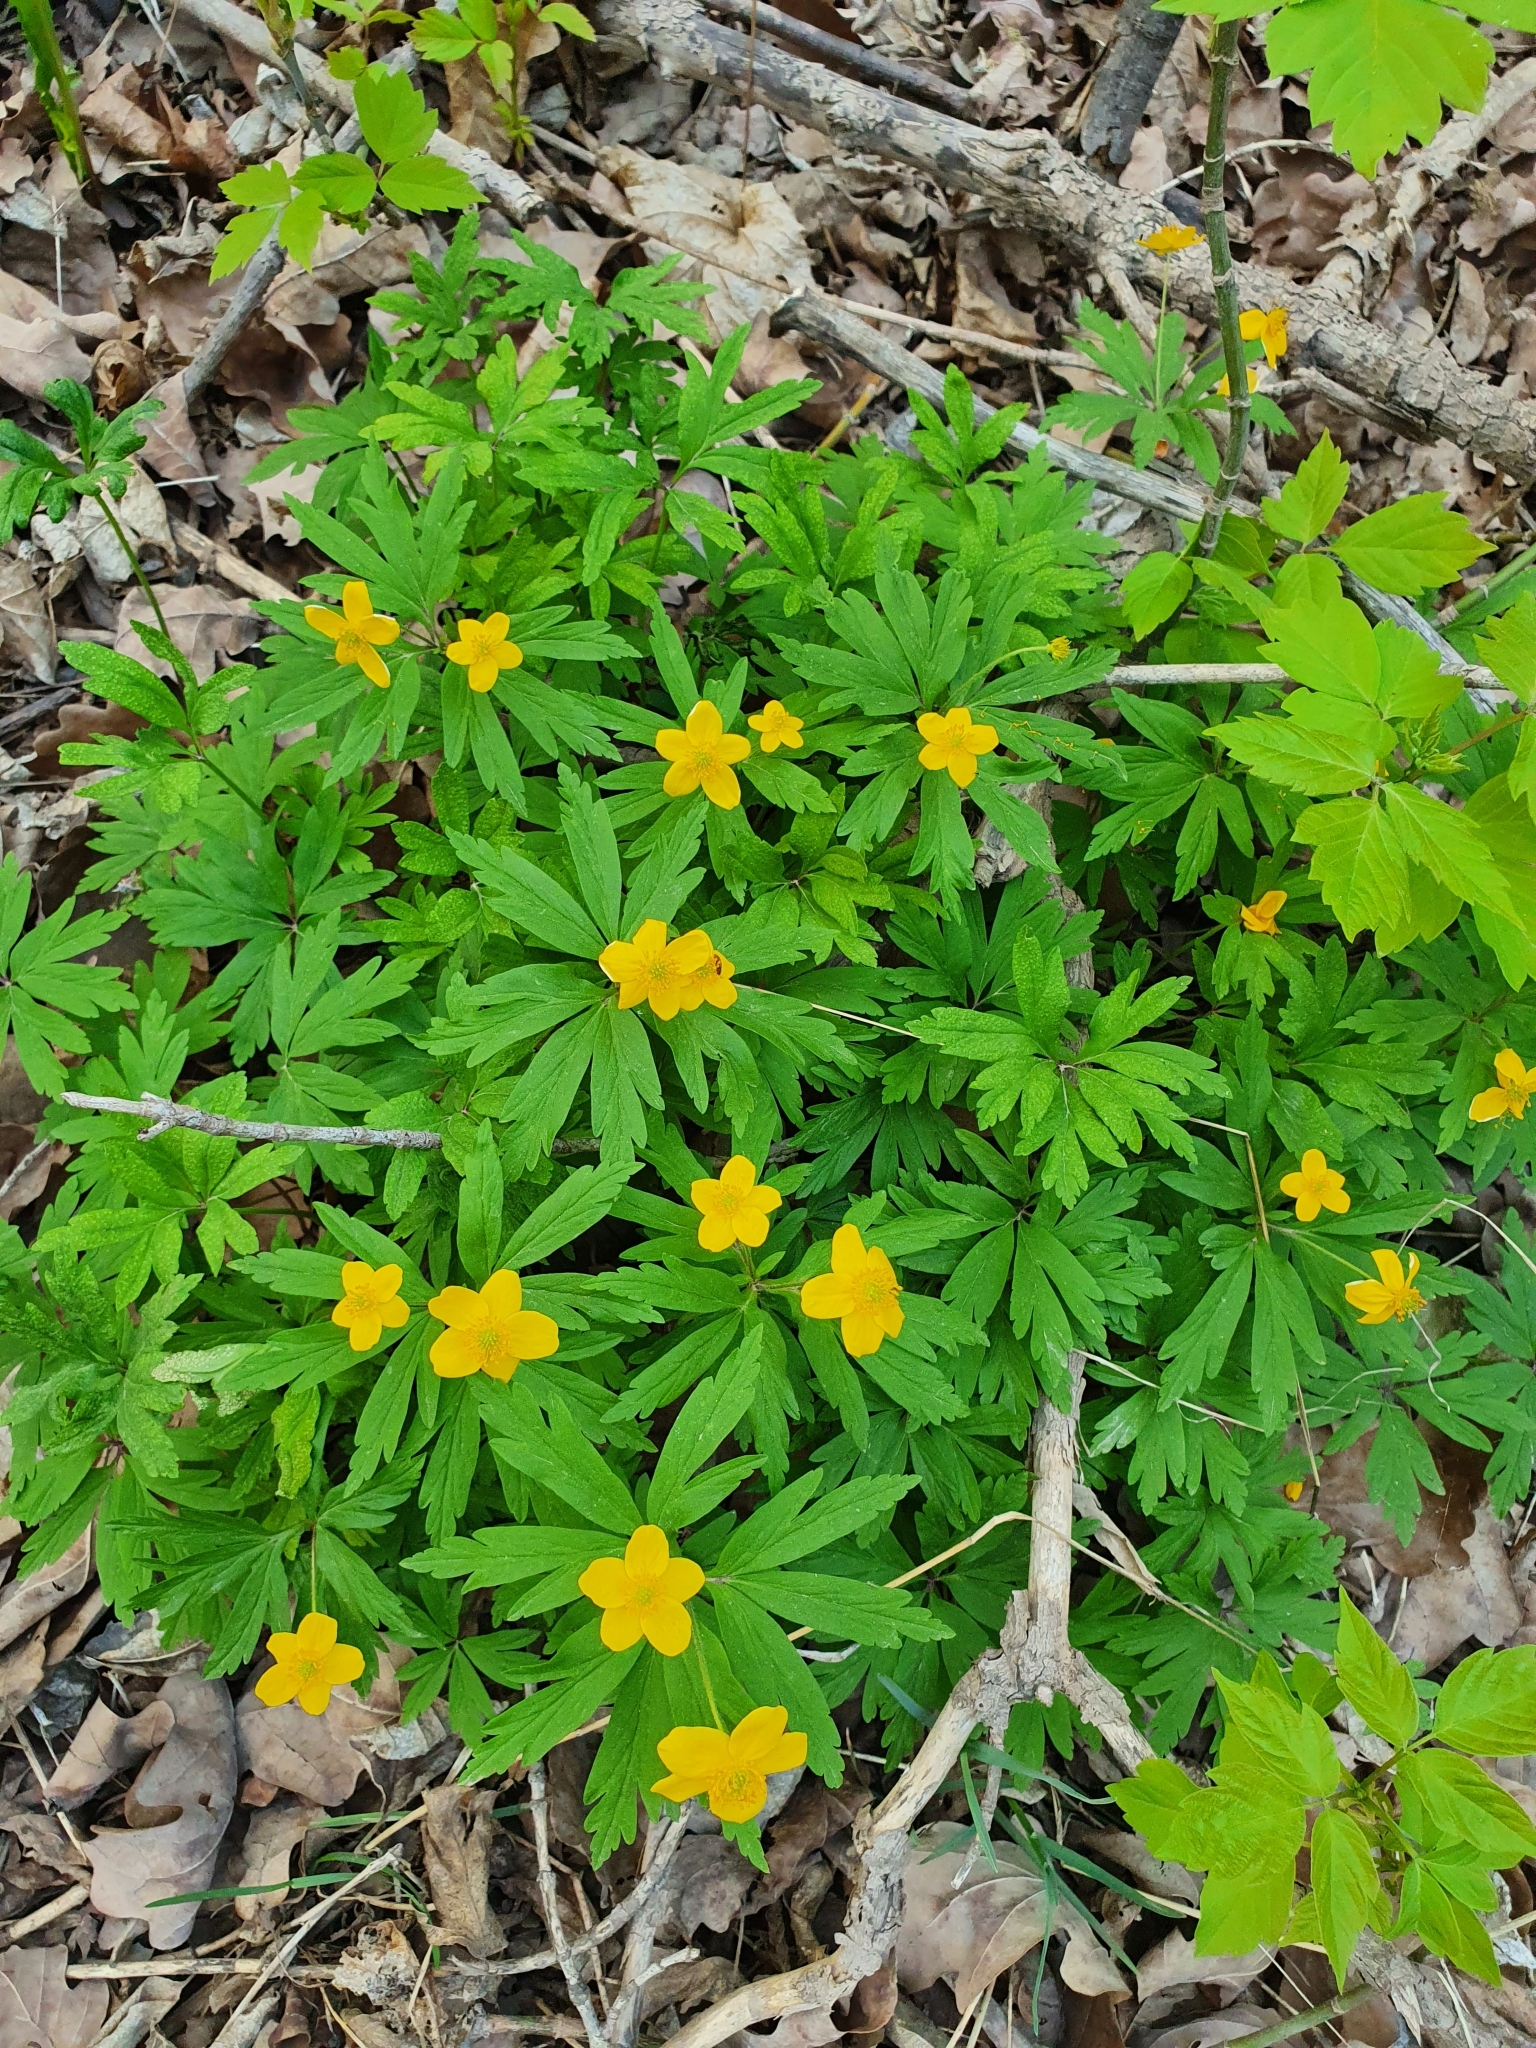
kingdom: Plantae
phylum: Tracheophyta
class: Magnoliopsida
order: Ranunculales
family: Ranunculaceae
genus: Anemone
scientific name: Anemone ranunculoides
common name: Yellow anemone
